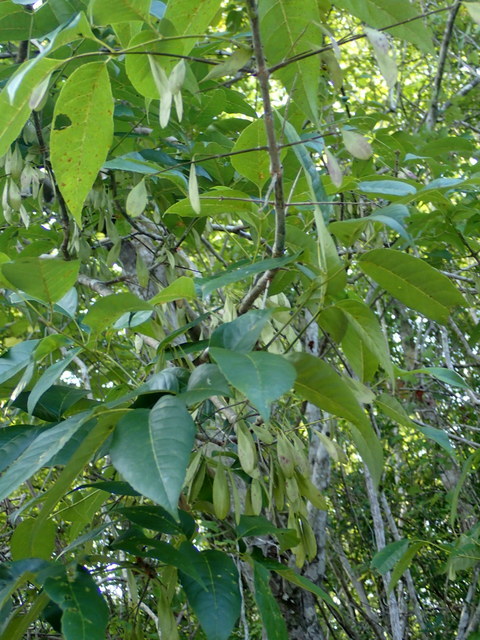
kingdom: Plantae
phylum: Tracheophyta
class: Magnoliopsida
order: Lamiales
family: Oleaceae
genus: Fraxinus
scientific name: Fraxinus caroliniana
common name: Carolina ash
